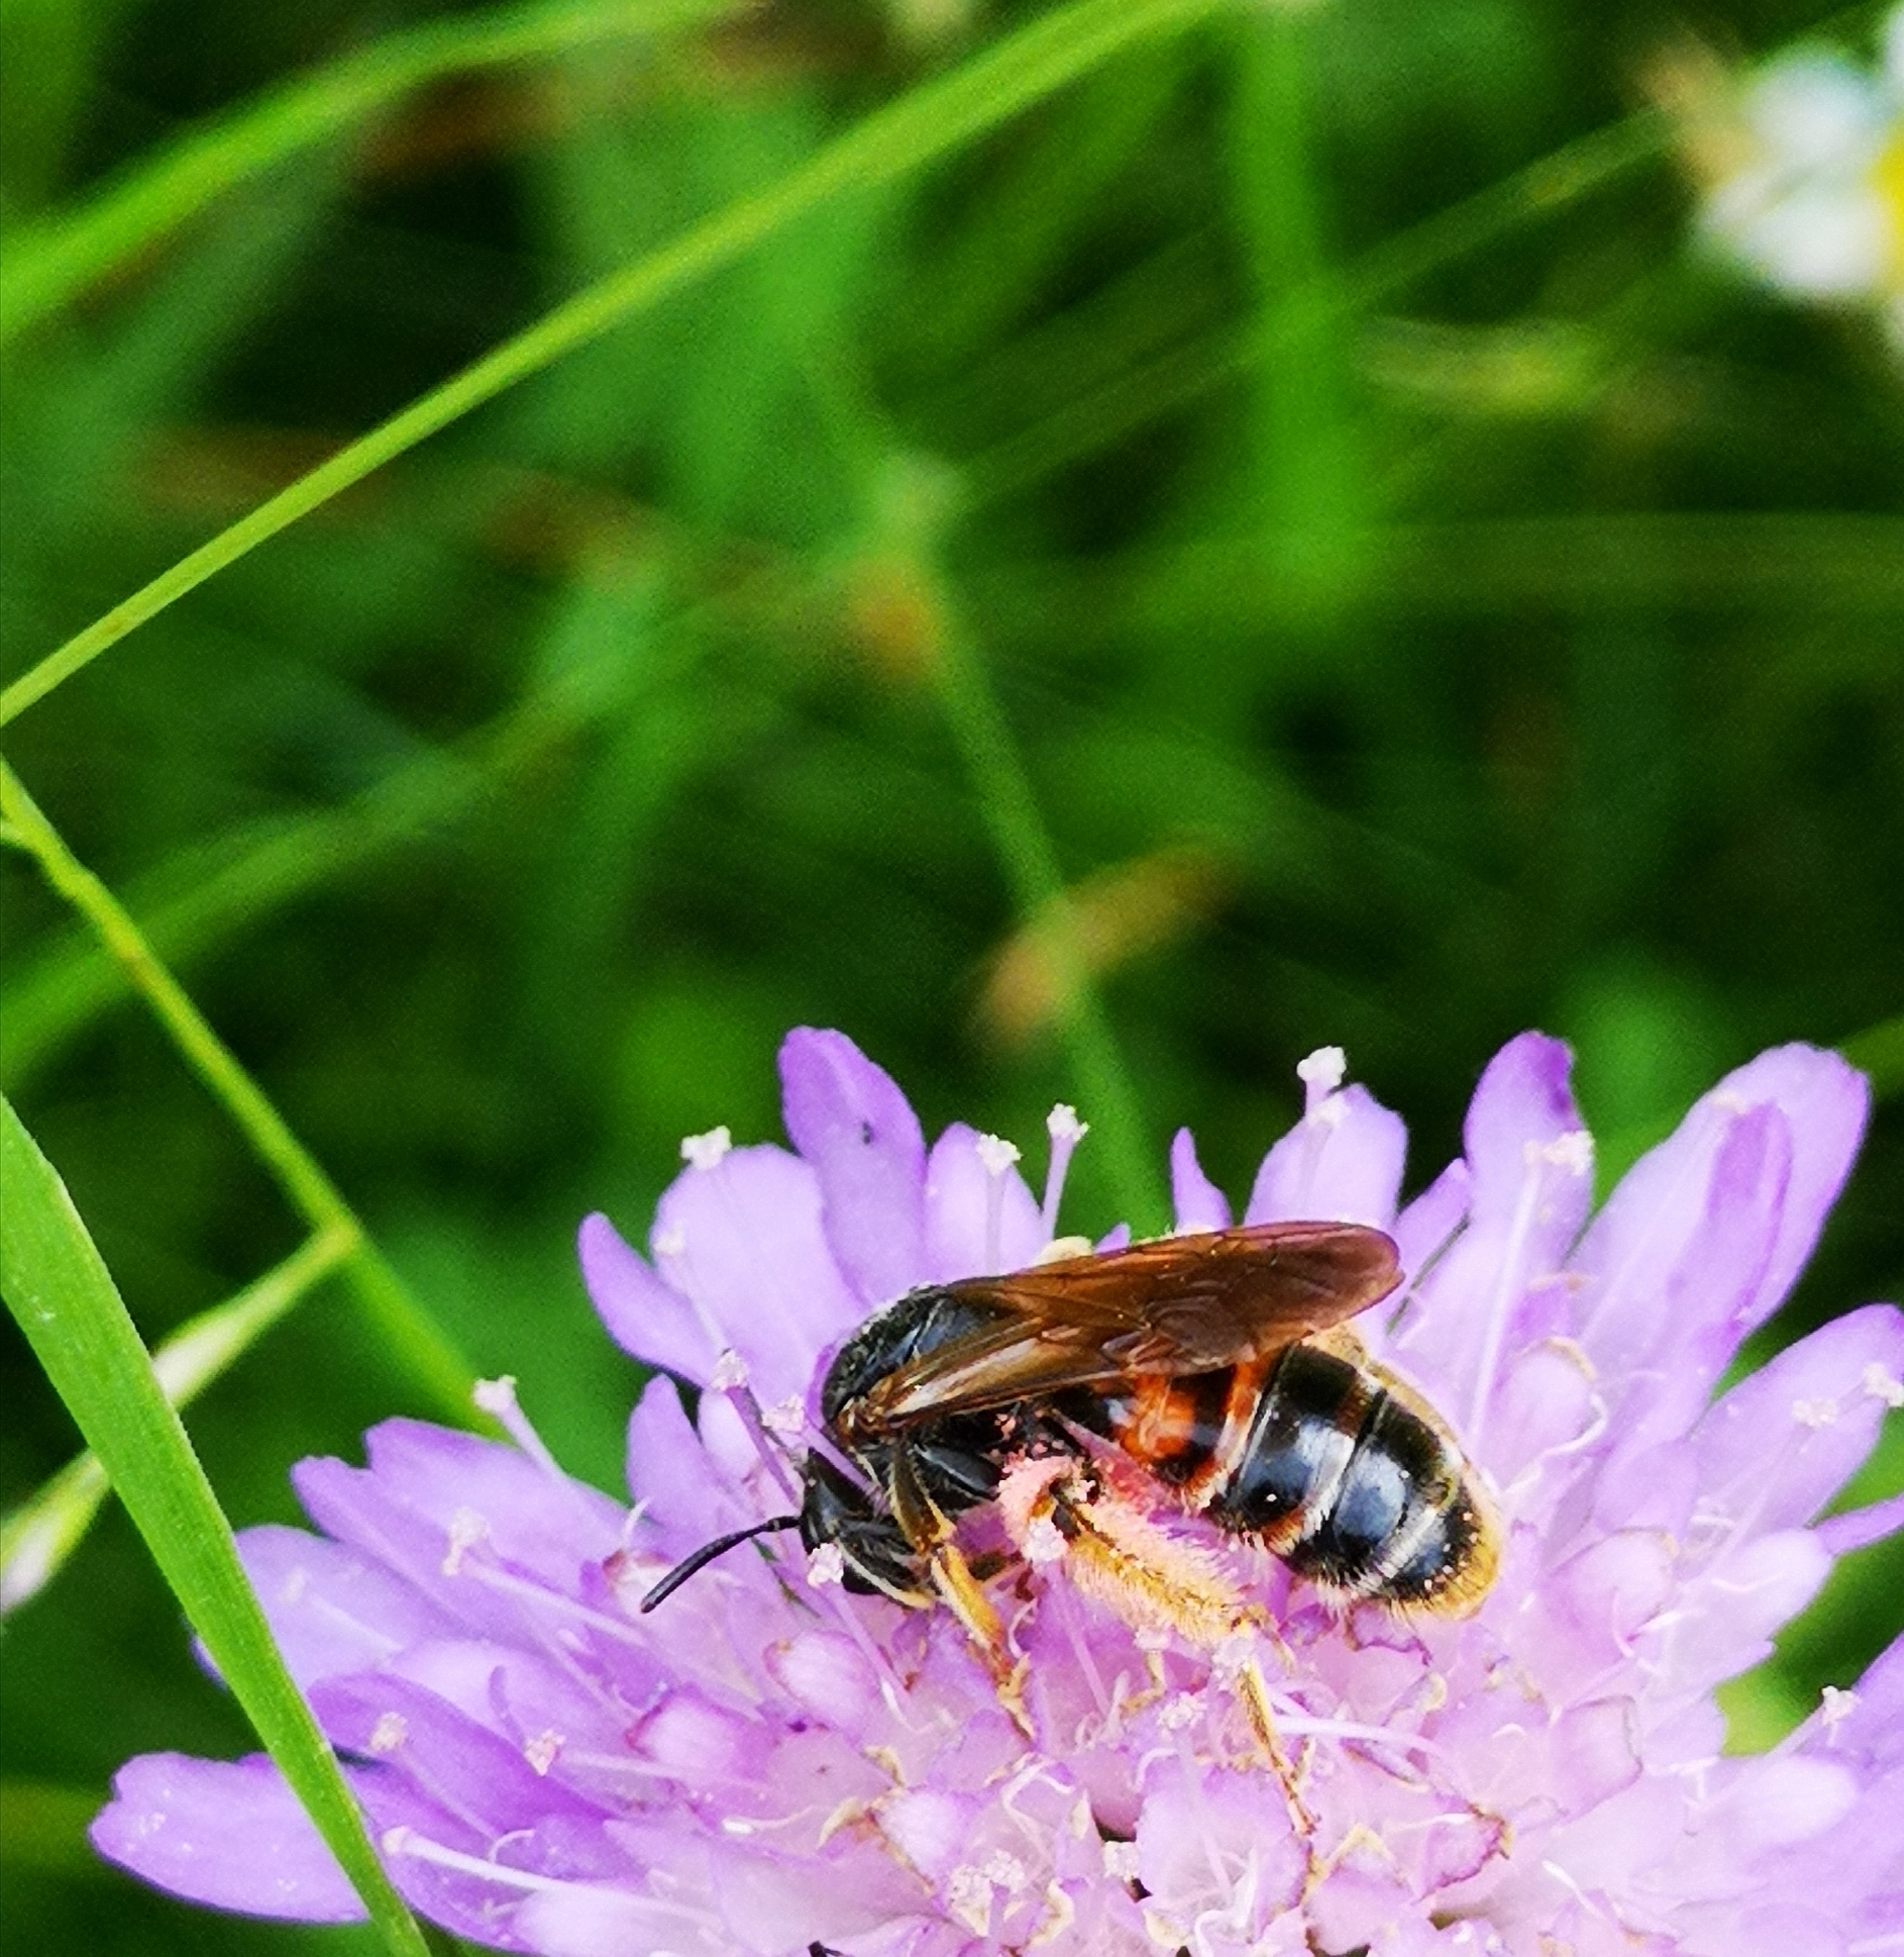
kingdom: Animalia
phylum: Arthropoda
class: Insecta
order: Hymenoptera
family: Andrenidae
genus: Andrena
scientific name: Andrena hattorfiana
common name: Large scabious mining bee
